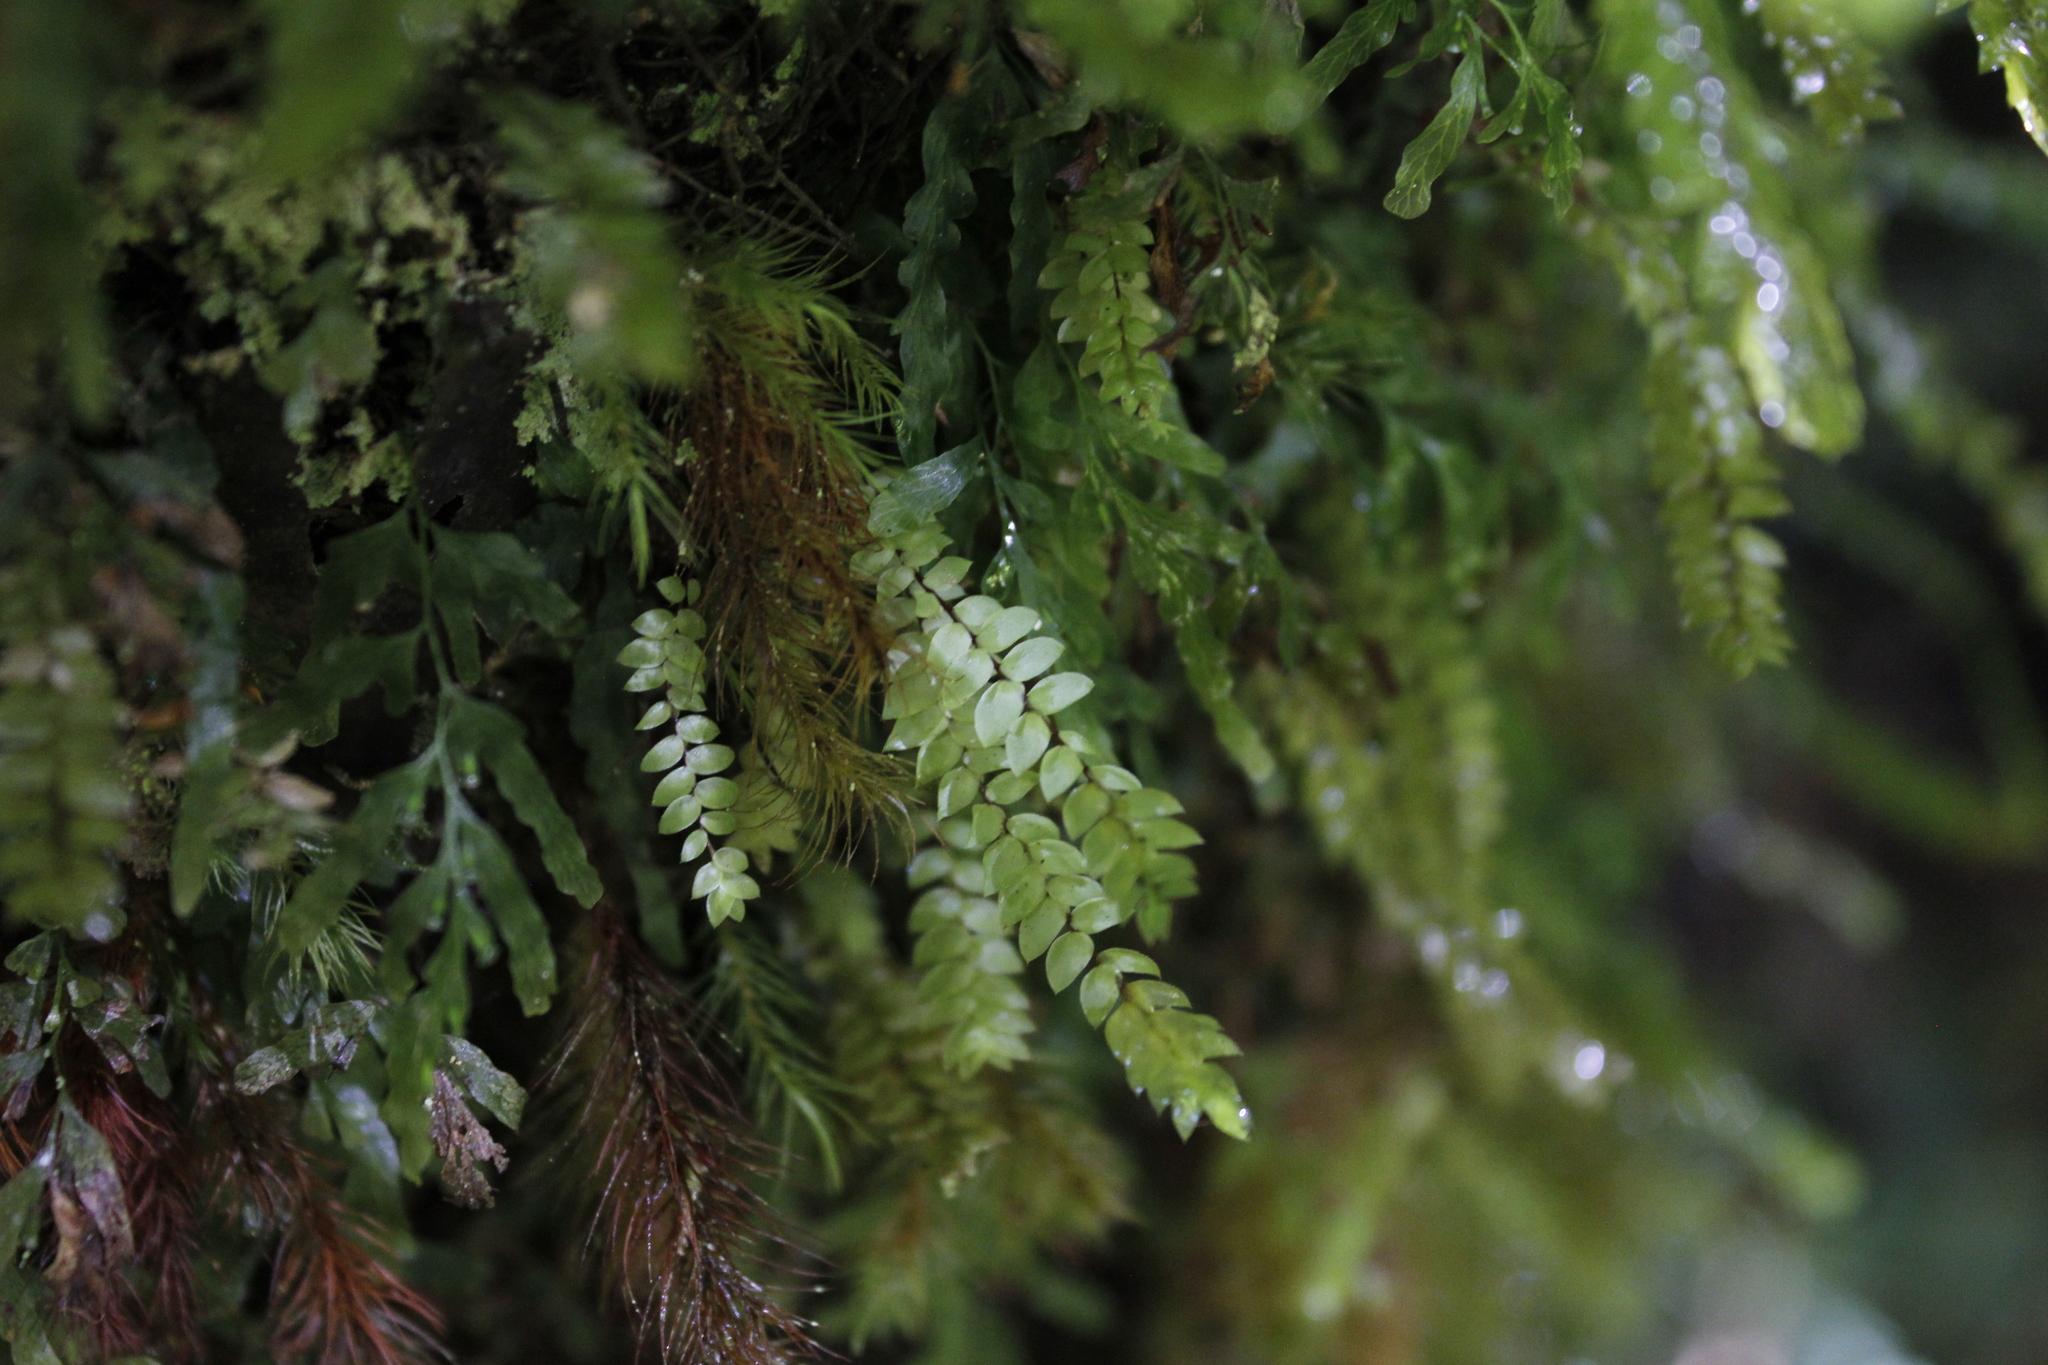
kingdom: Plantae
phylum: Bryophyta
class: Bryopsida
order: Hypopterygiales
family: Hypopterygiaceae
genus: Cyathophorum
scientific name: Cyathophorum bulbosum
